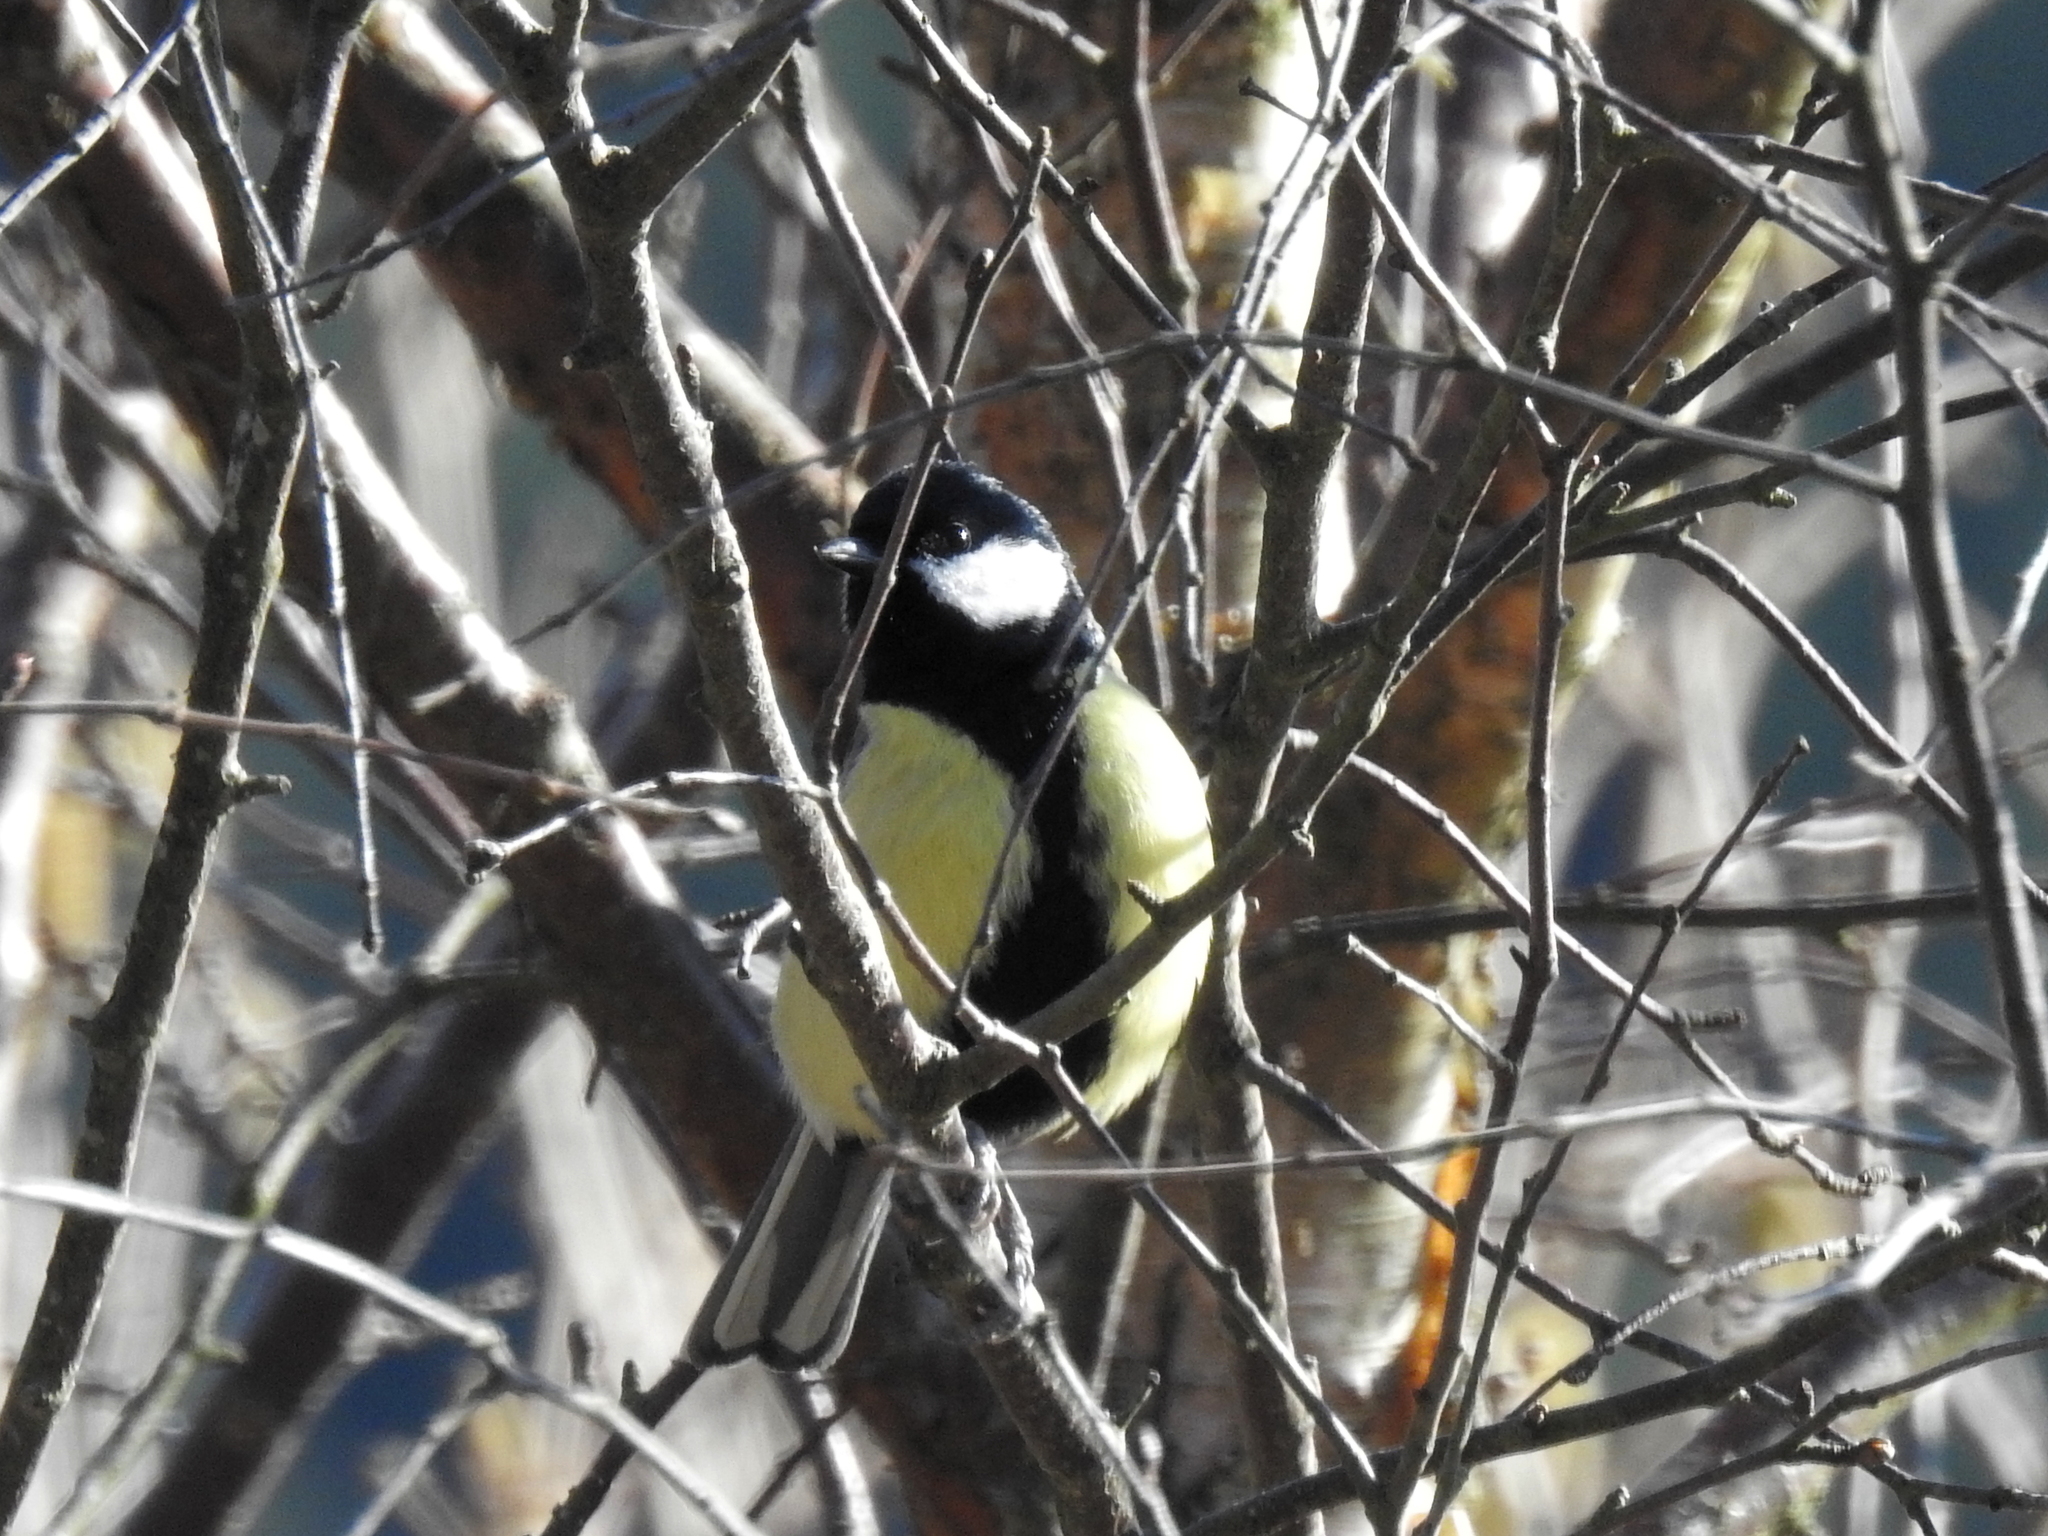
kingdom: Animalia
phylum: Chordata
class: Aves
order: Passeriformes
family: Paridae
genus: Parus
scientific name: Parus major
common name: Great tit
